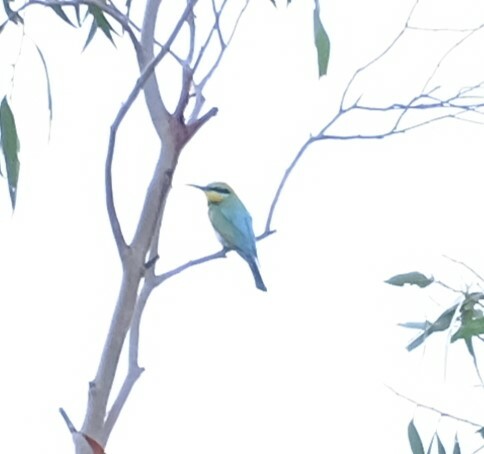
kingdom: Animalia
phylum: Chordata
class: Aves
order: Coraciiformes
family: Meropidae
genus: Merops
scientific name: Merops ornatus
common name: Rainbow bee-eater
